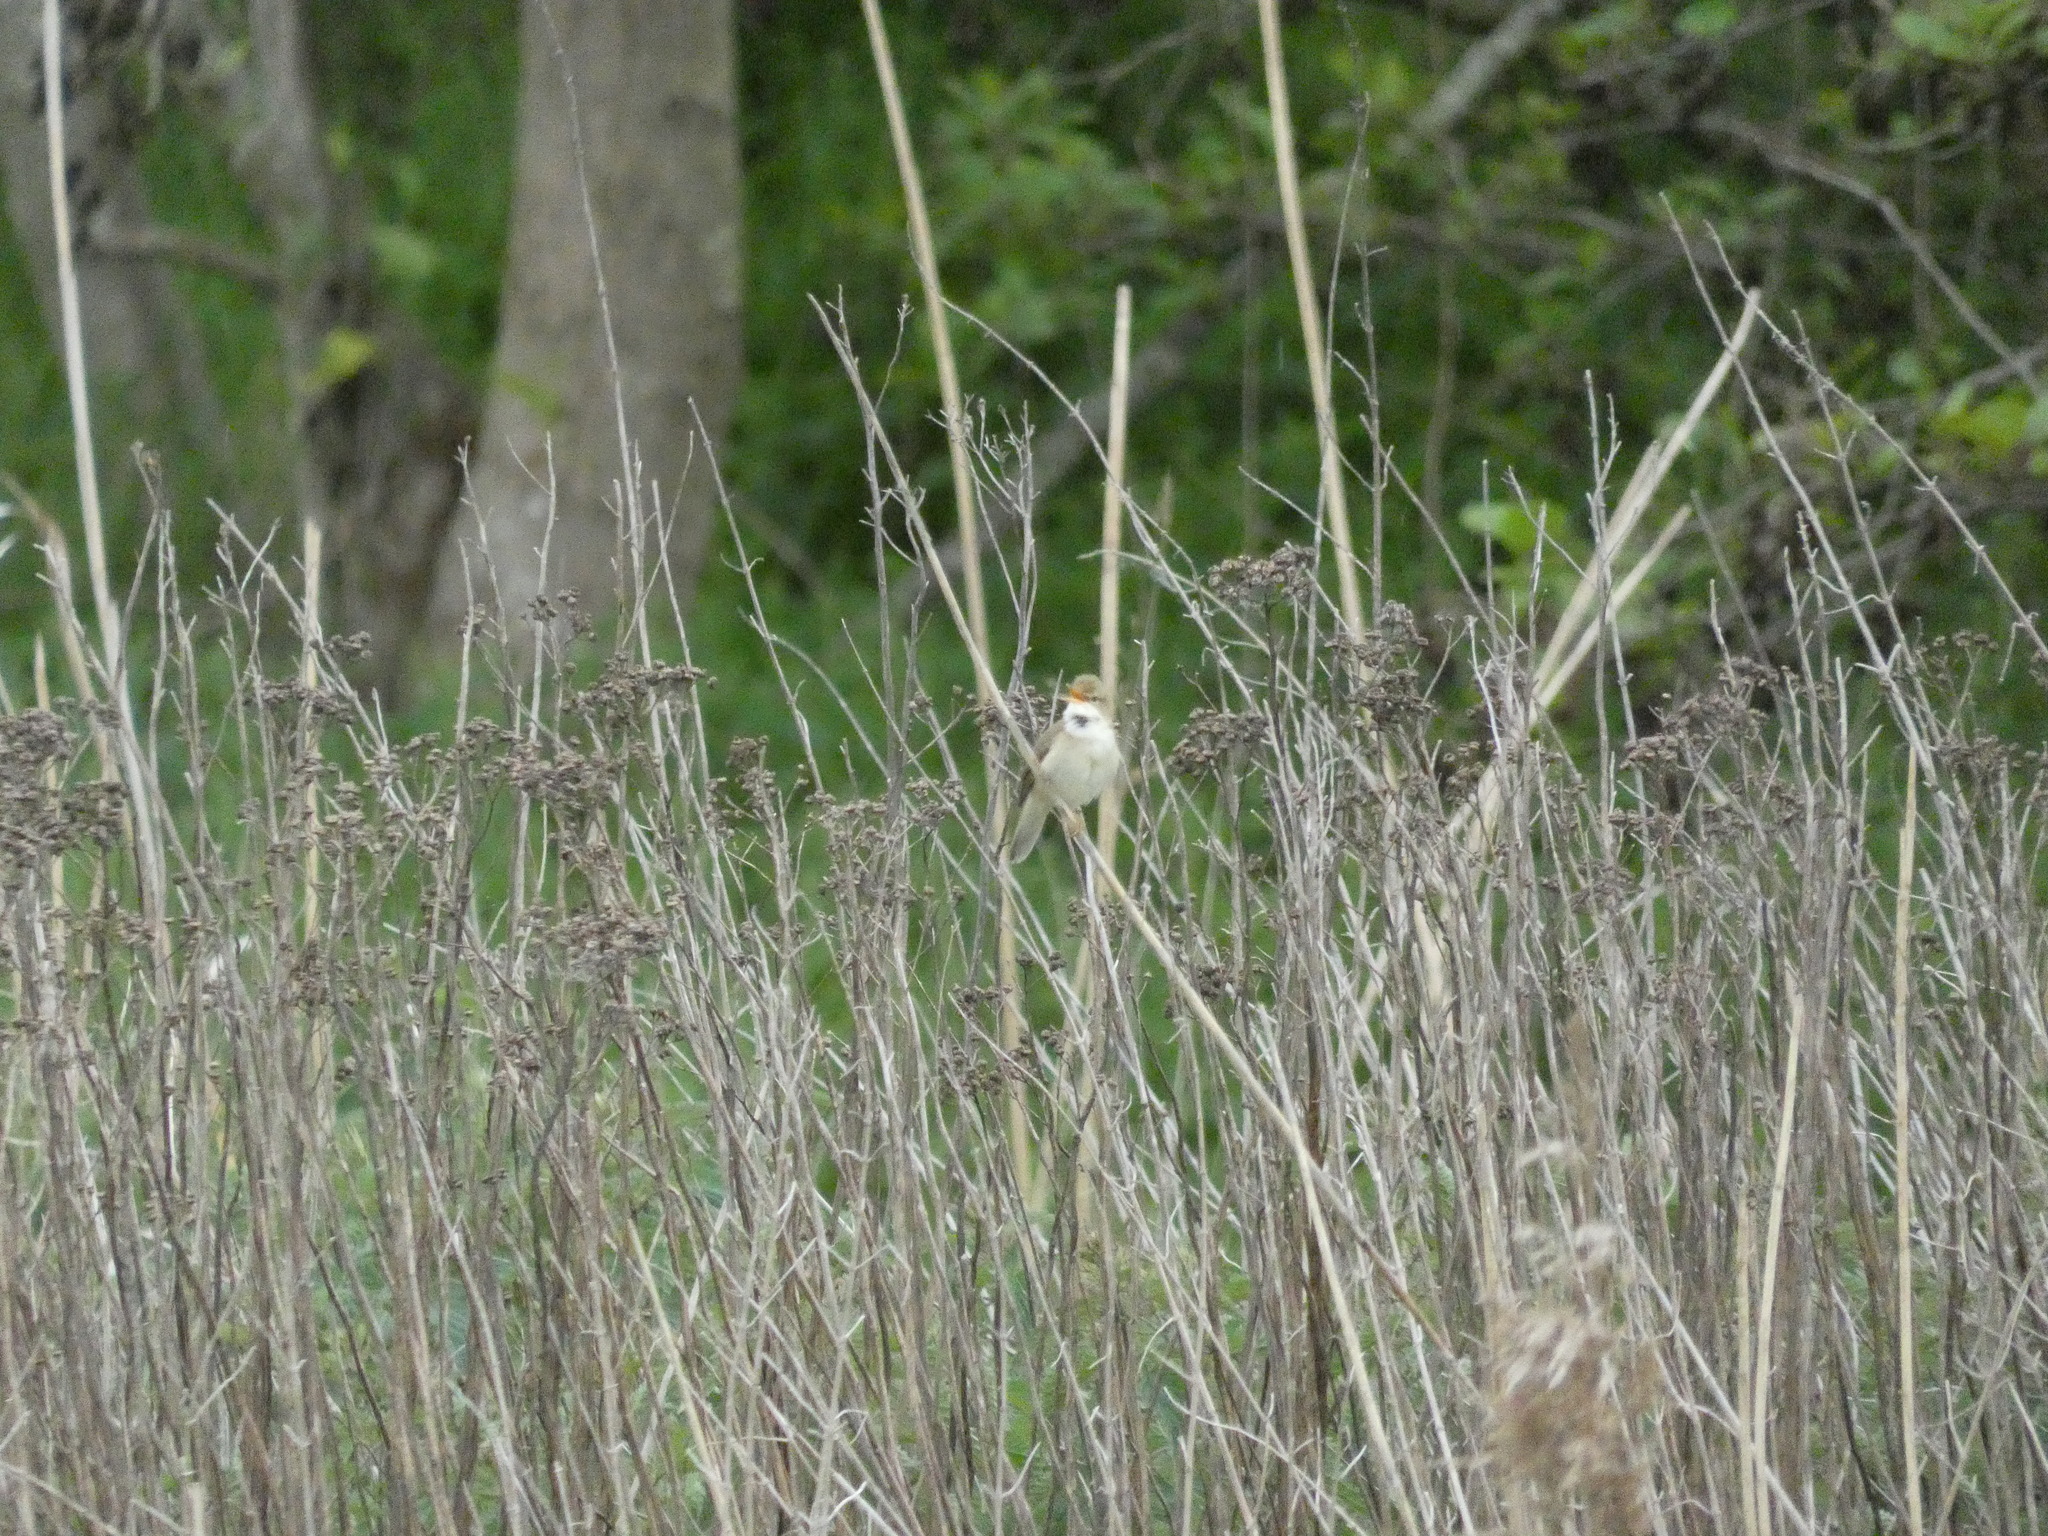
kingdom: Animalia
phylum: Chordata
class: Aves
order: Passeriformes
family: Acrocephalidae
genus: Acrocephalus
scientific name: Acrocephalus scirpaceus
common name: Eurasian reed warbler
